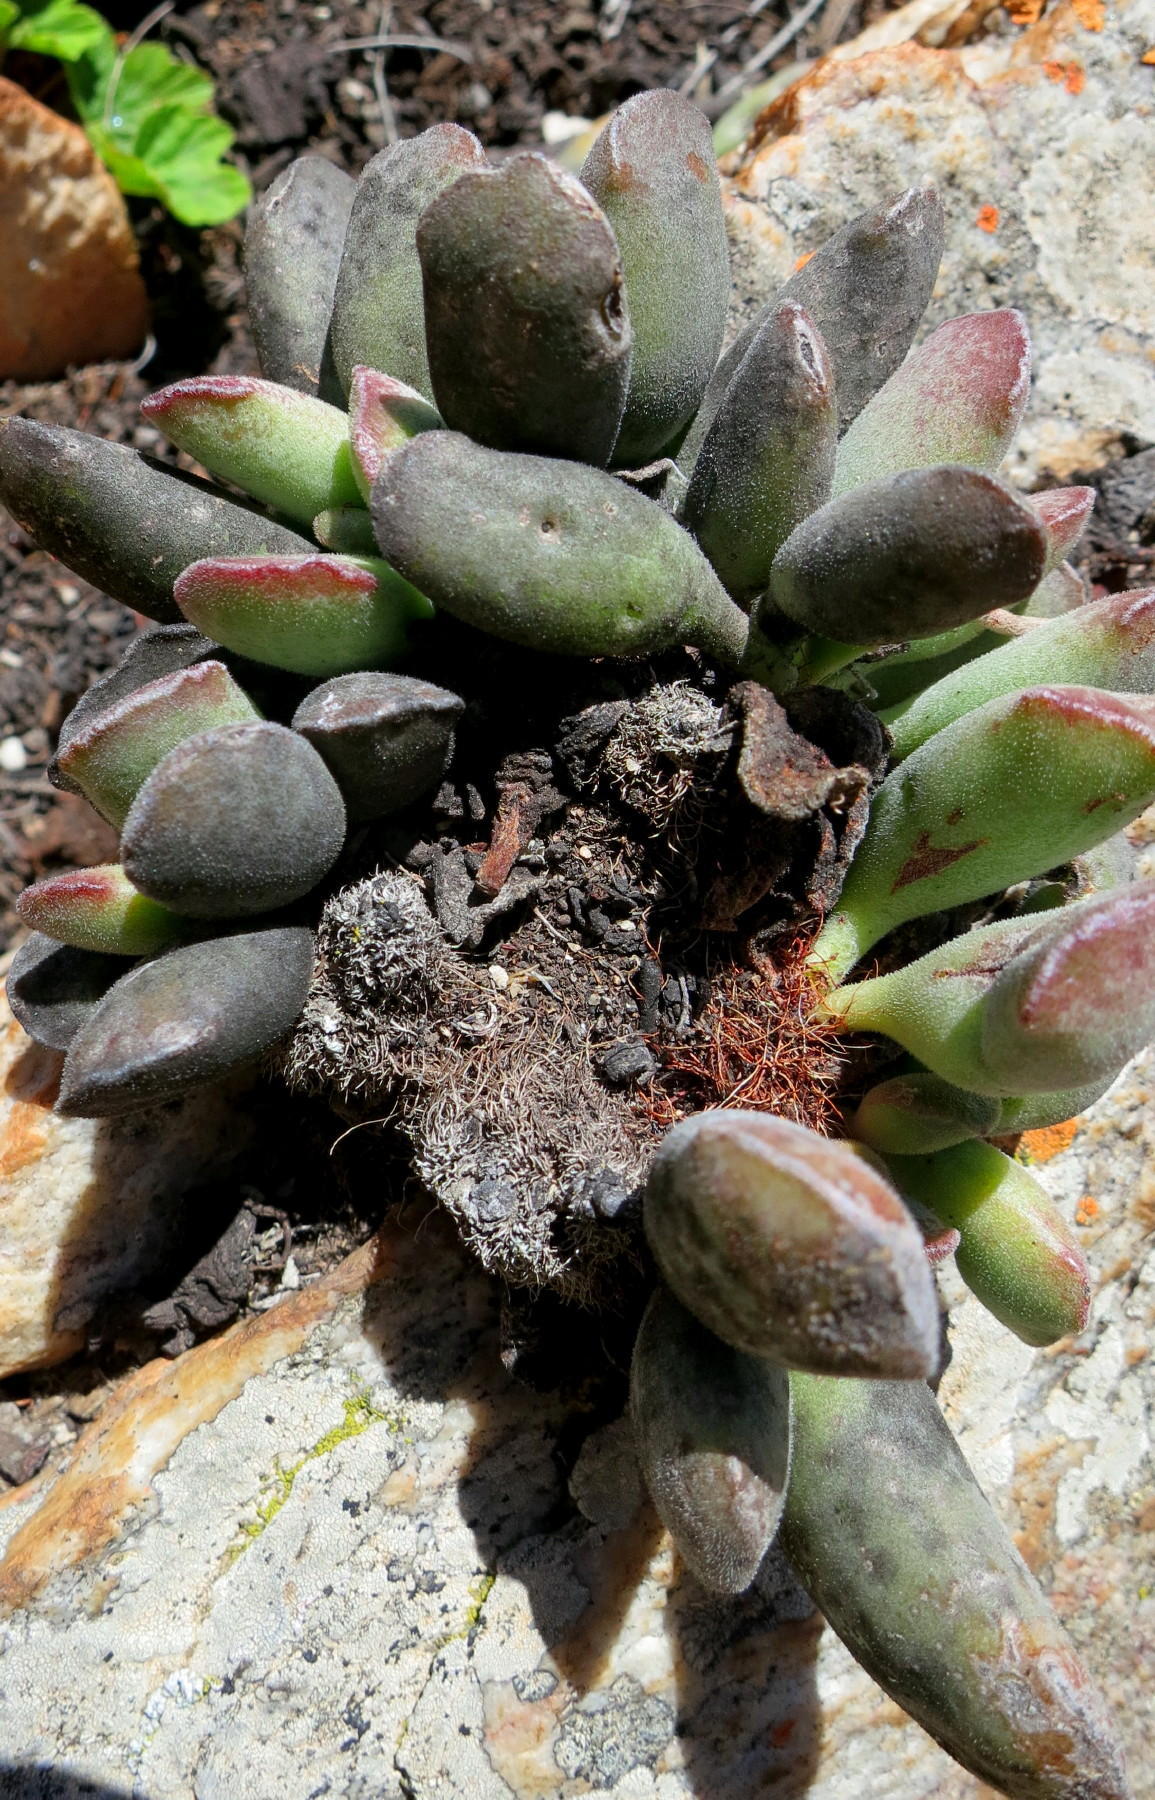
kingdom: Plantae
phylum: Tracheophyta
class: Magnoliopsida
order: Saxifragales
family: Crassulaceae
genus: Adromischus
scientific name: Adromischus cristatus
